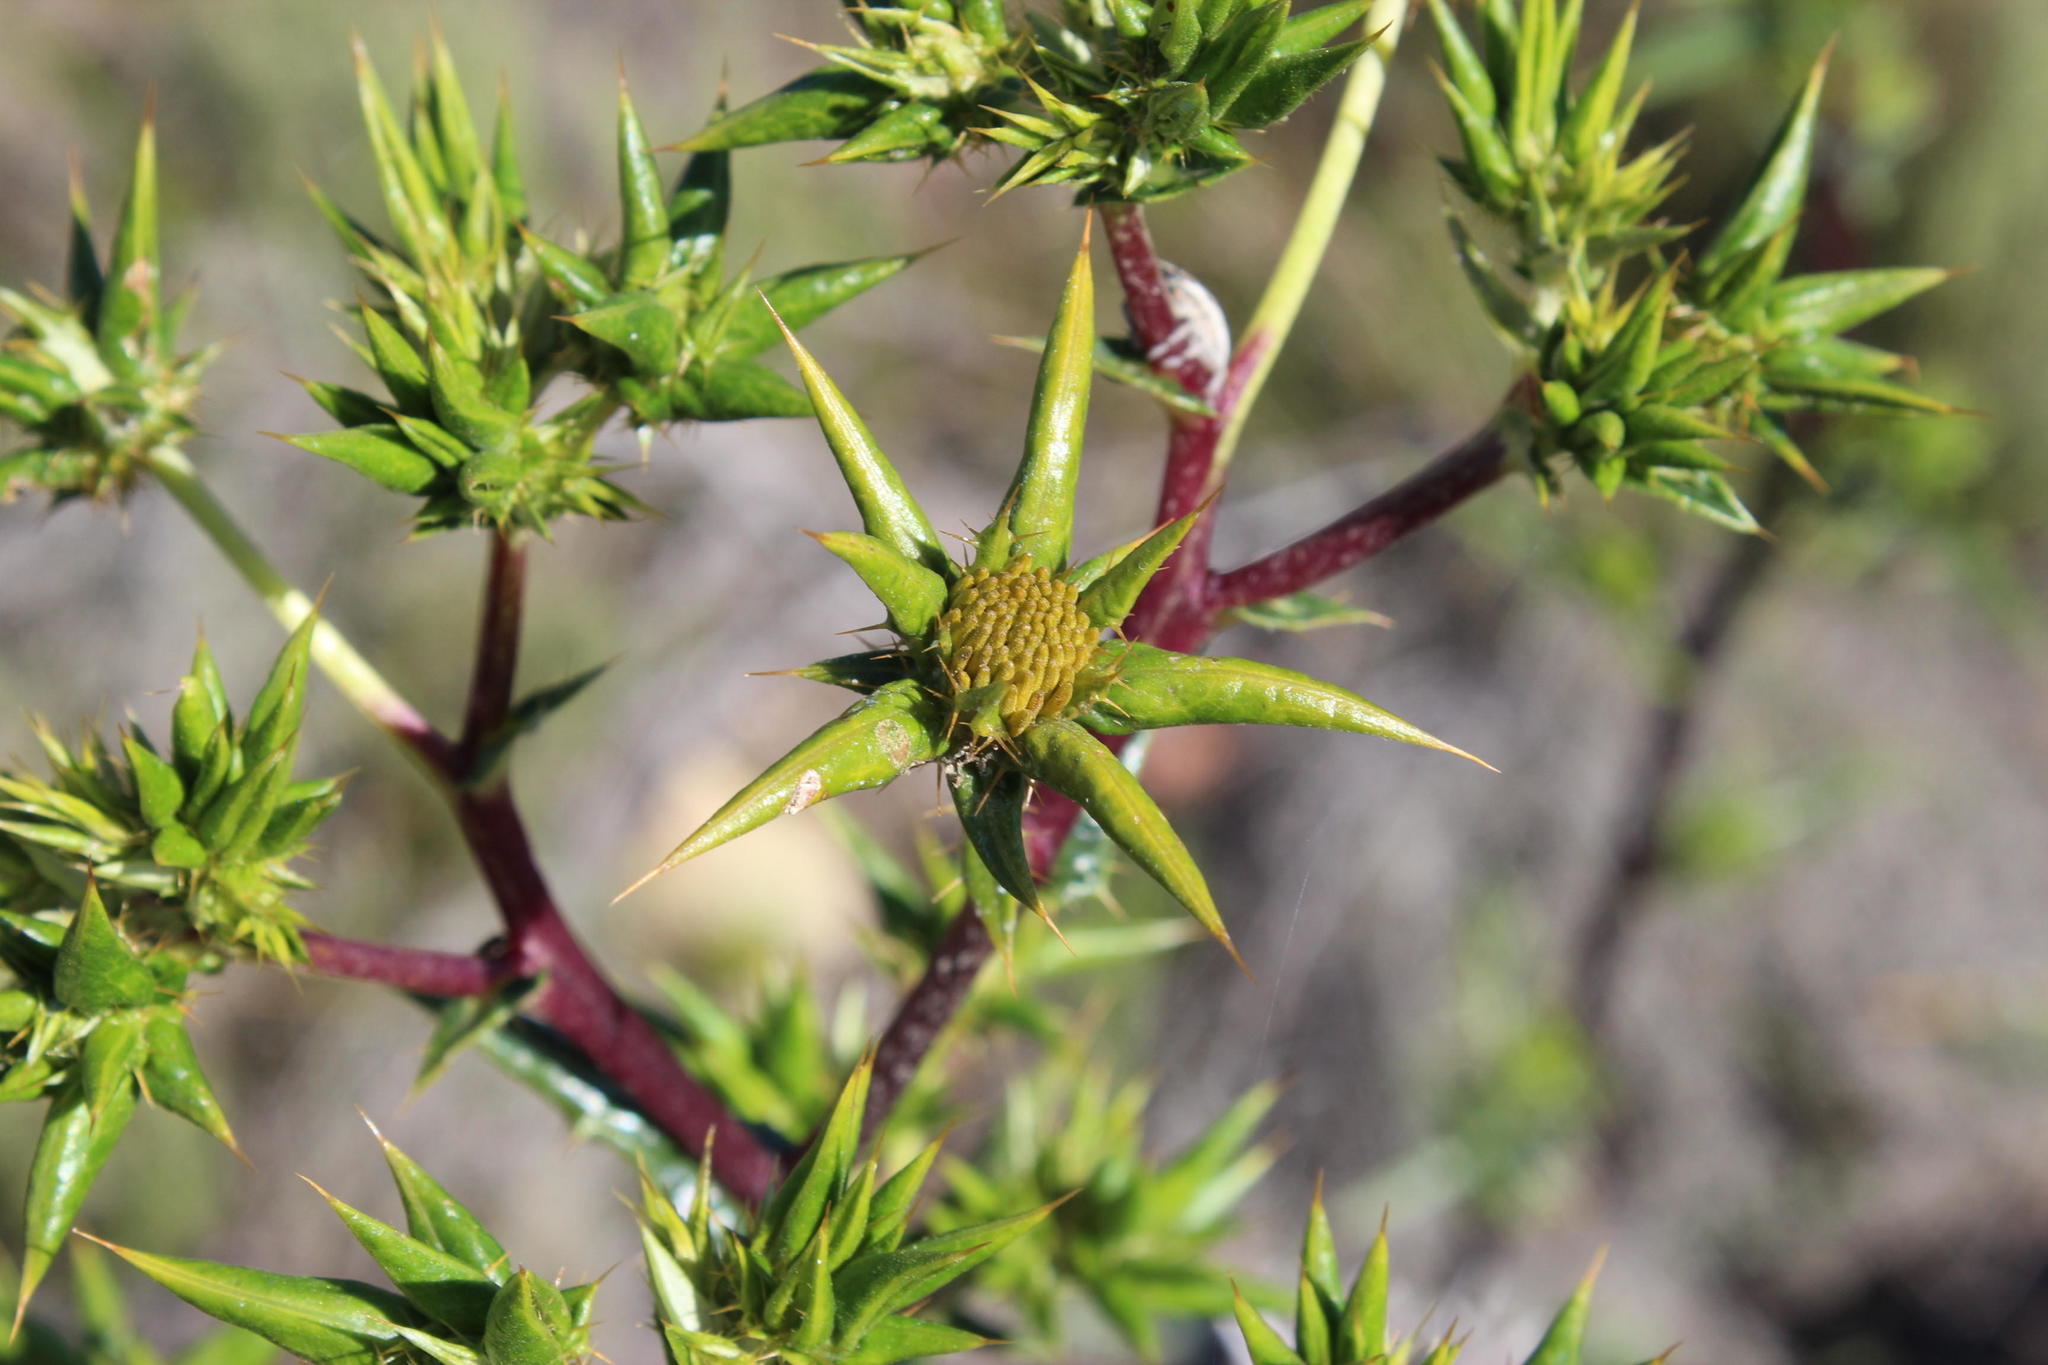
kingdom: Plantae
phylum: Tracheophyta
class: Magnoliopsida
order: Asterales
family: Asteraceae
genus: Berkheya
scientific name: Berkheya rigida
